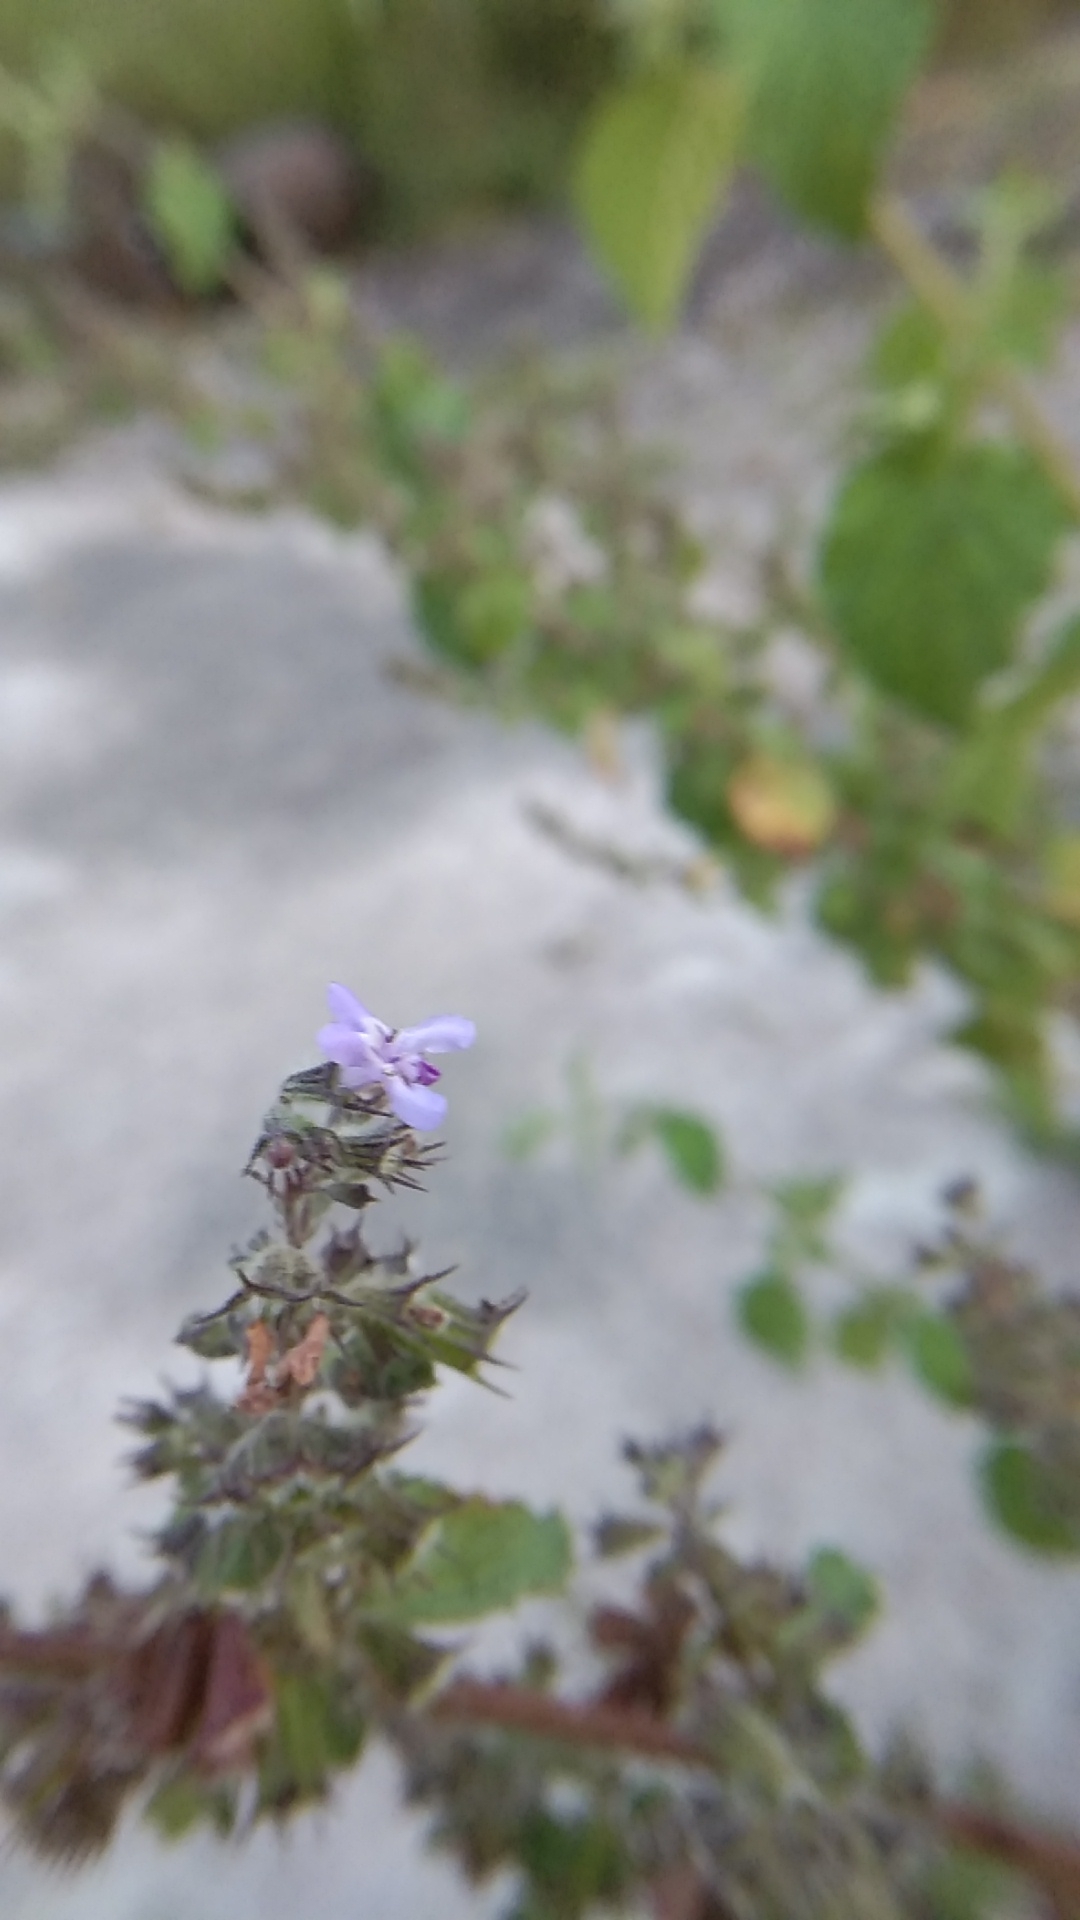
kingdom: Plantae
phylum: Tracheophyta
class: Magnoliopsida
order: Lamiales
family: Lamiaceae
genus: Mesosphaerum
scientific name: Mesosphaerum suaveolens
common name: Pignut
